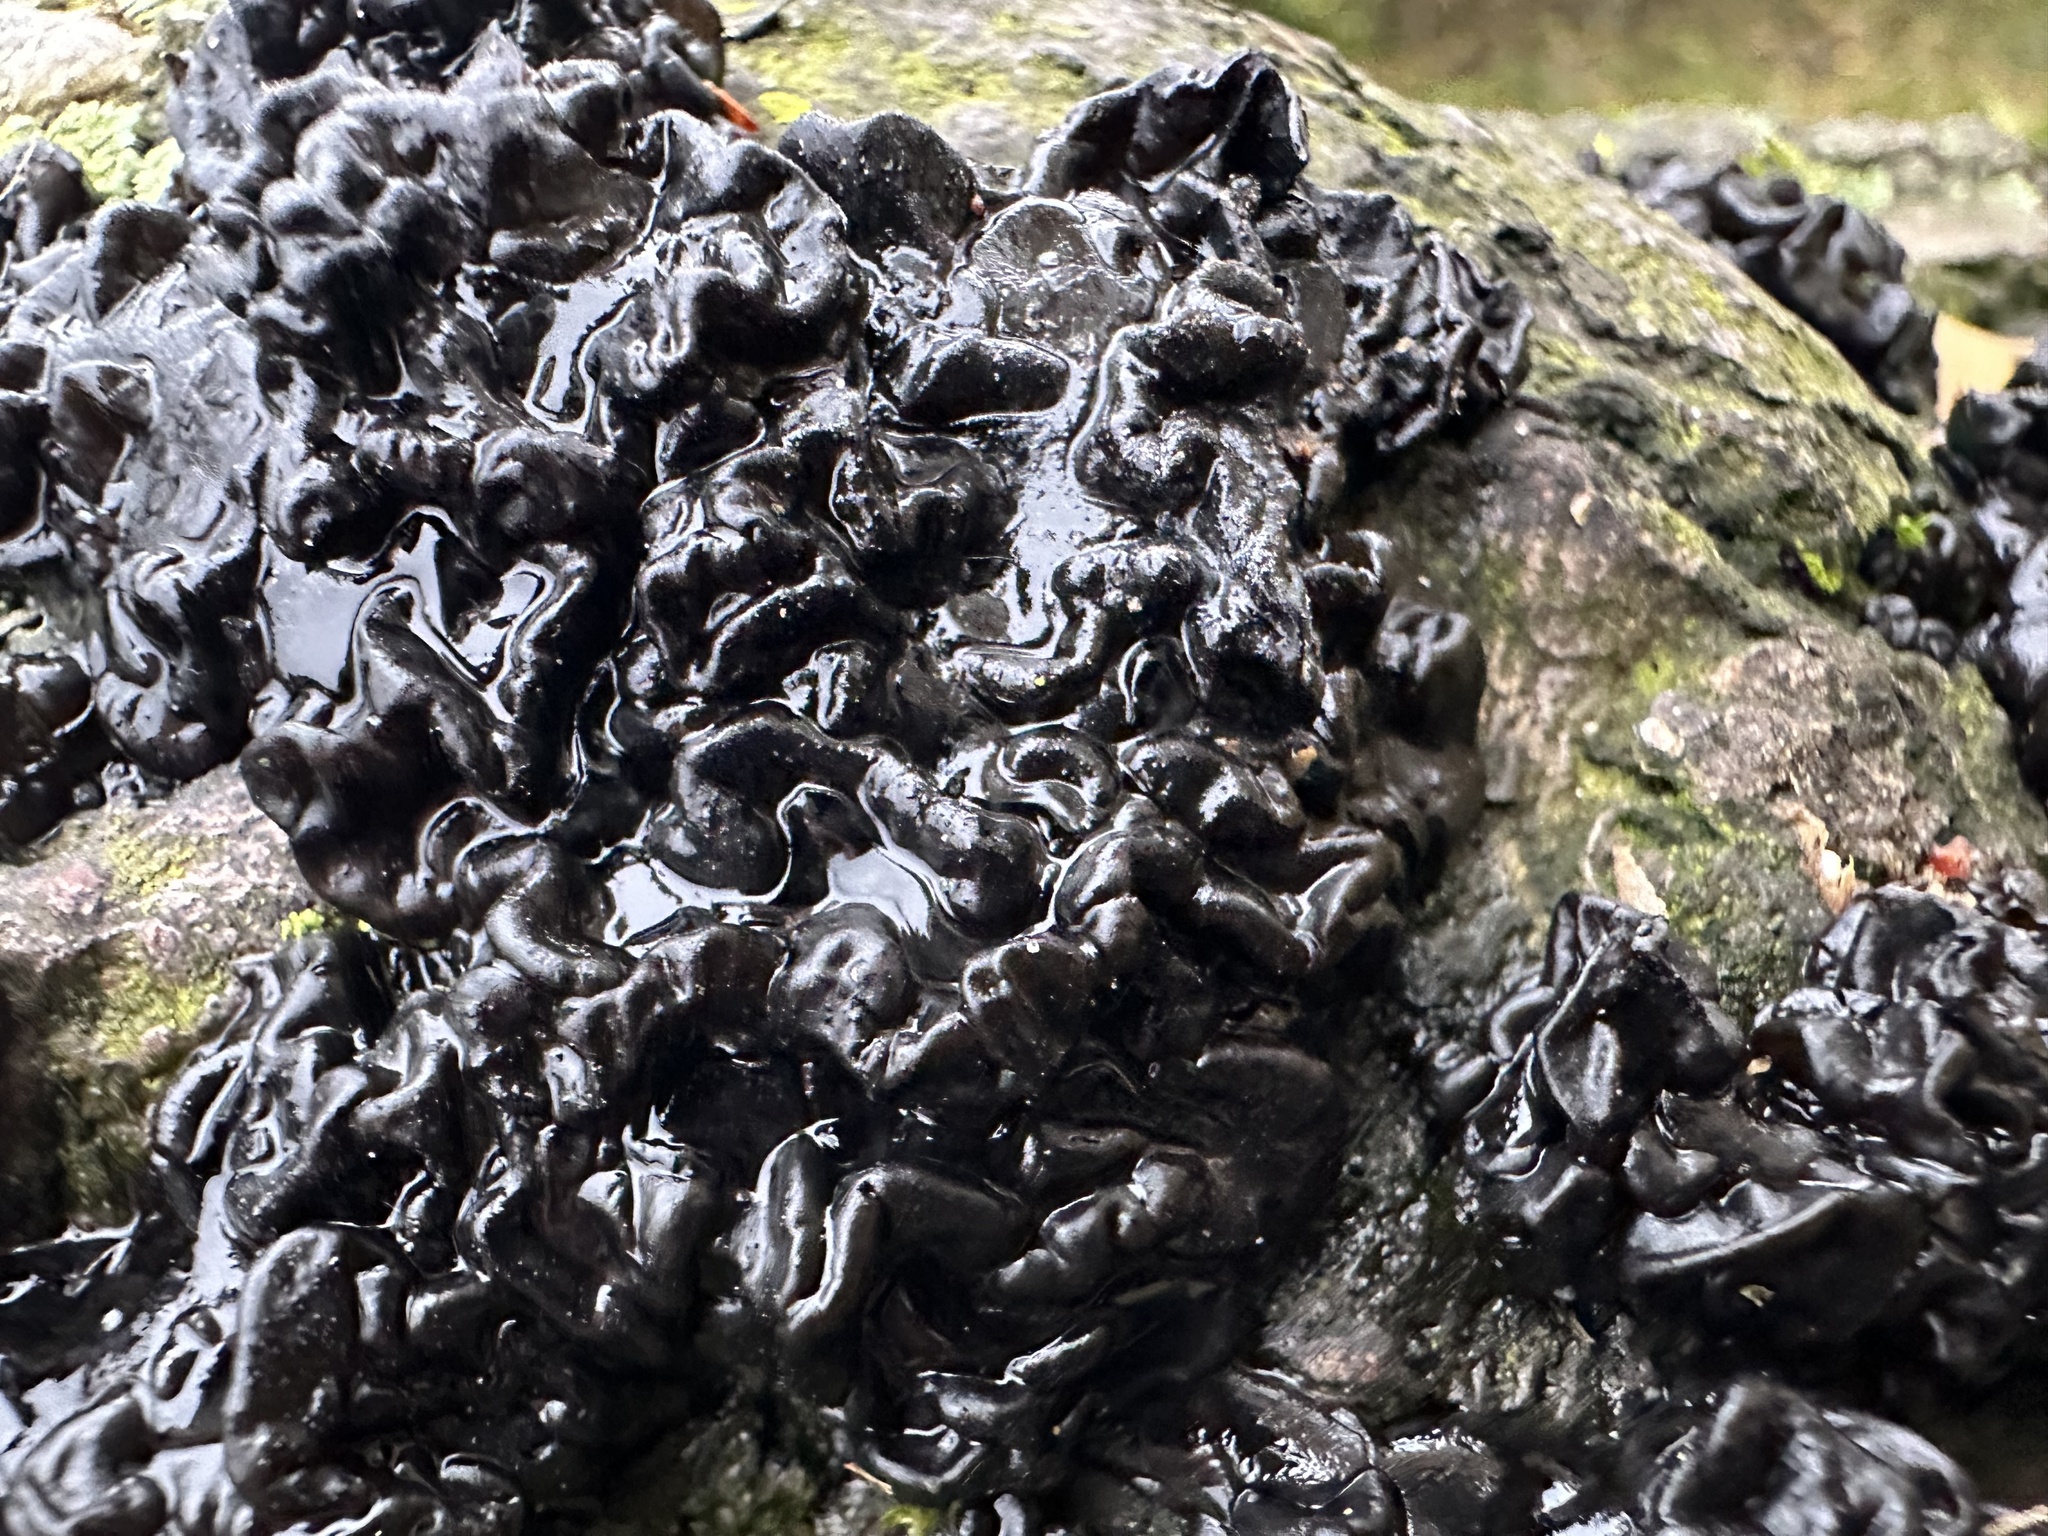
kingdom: Fungi
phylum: Basidiomycota
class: Agaricomycetes
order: Auriculariales
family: Auriculariaceae
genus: Exidia
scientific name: Exidia nigricans
